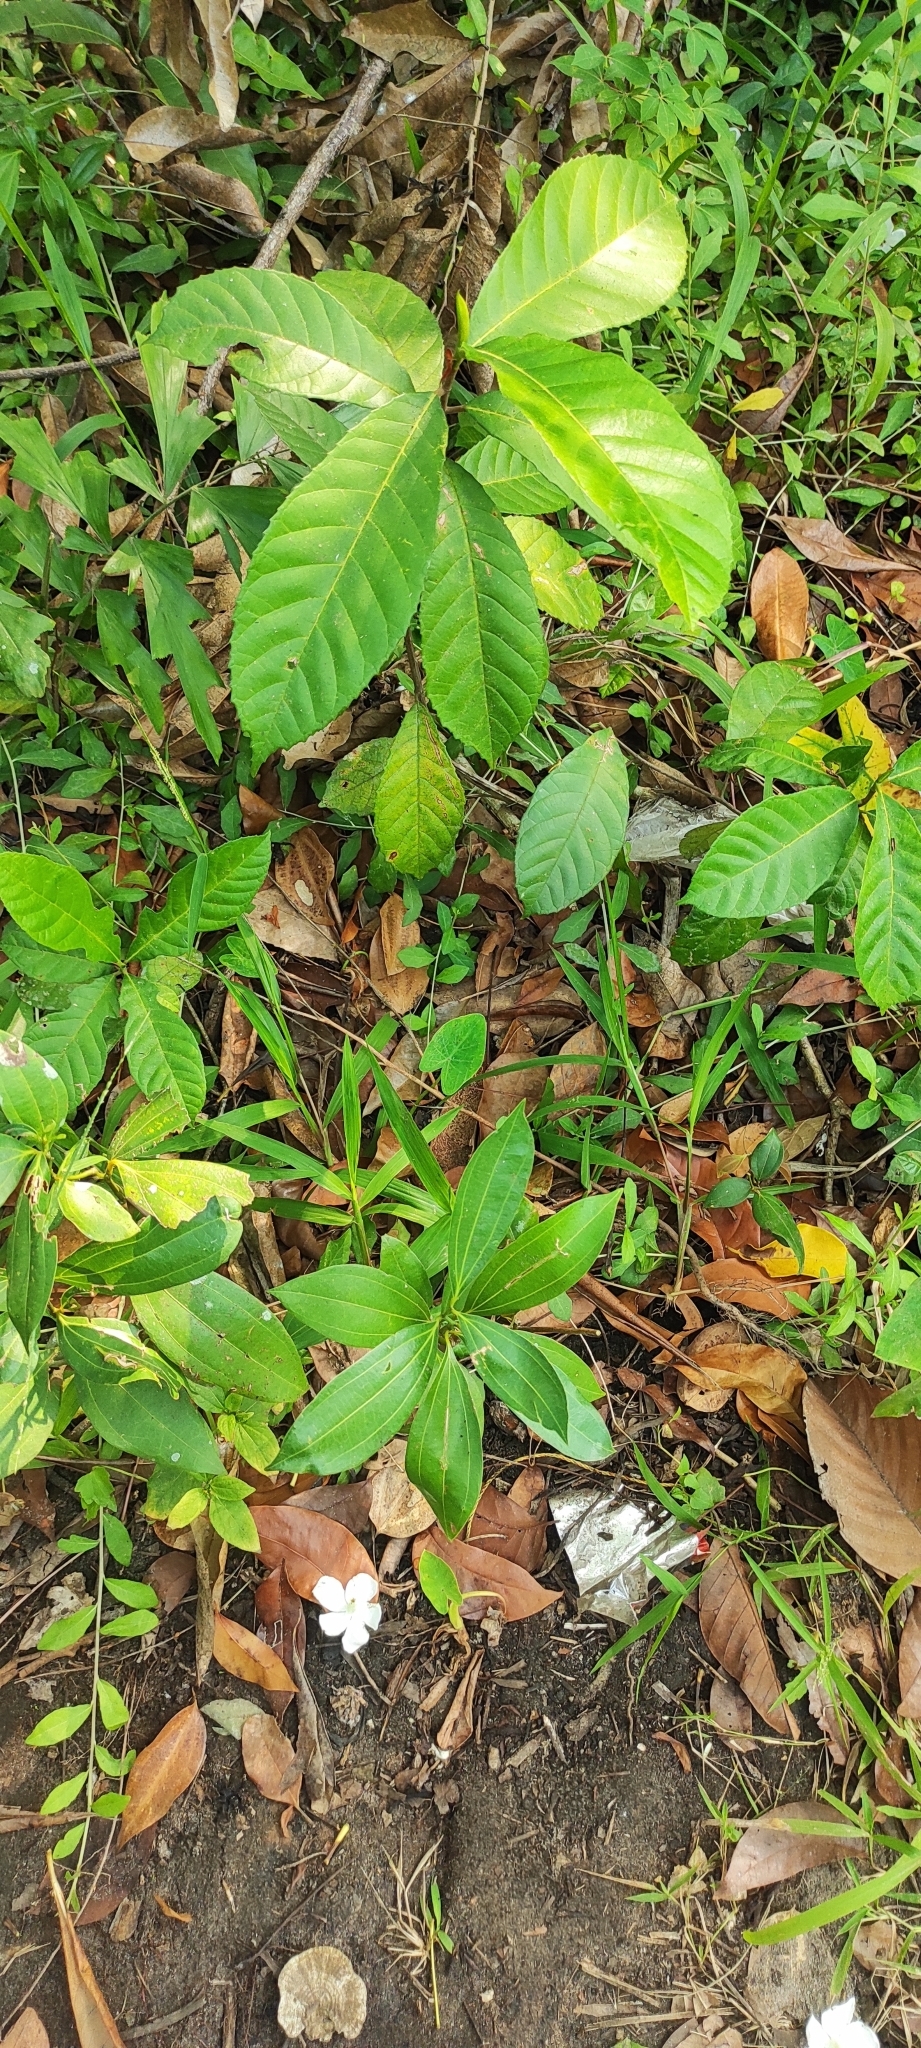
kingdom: Plantae
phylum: Tracheophyta
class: Magnoliopsida
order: Laurales
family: Lauraceae
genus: Cinnamomum
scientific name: Cinnamomum burmanni
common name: Padang cassia
